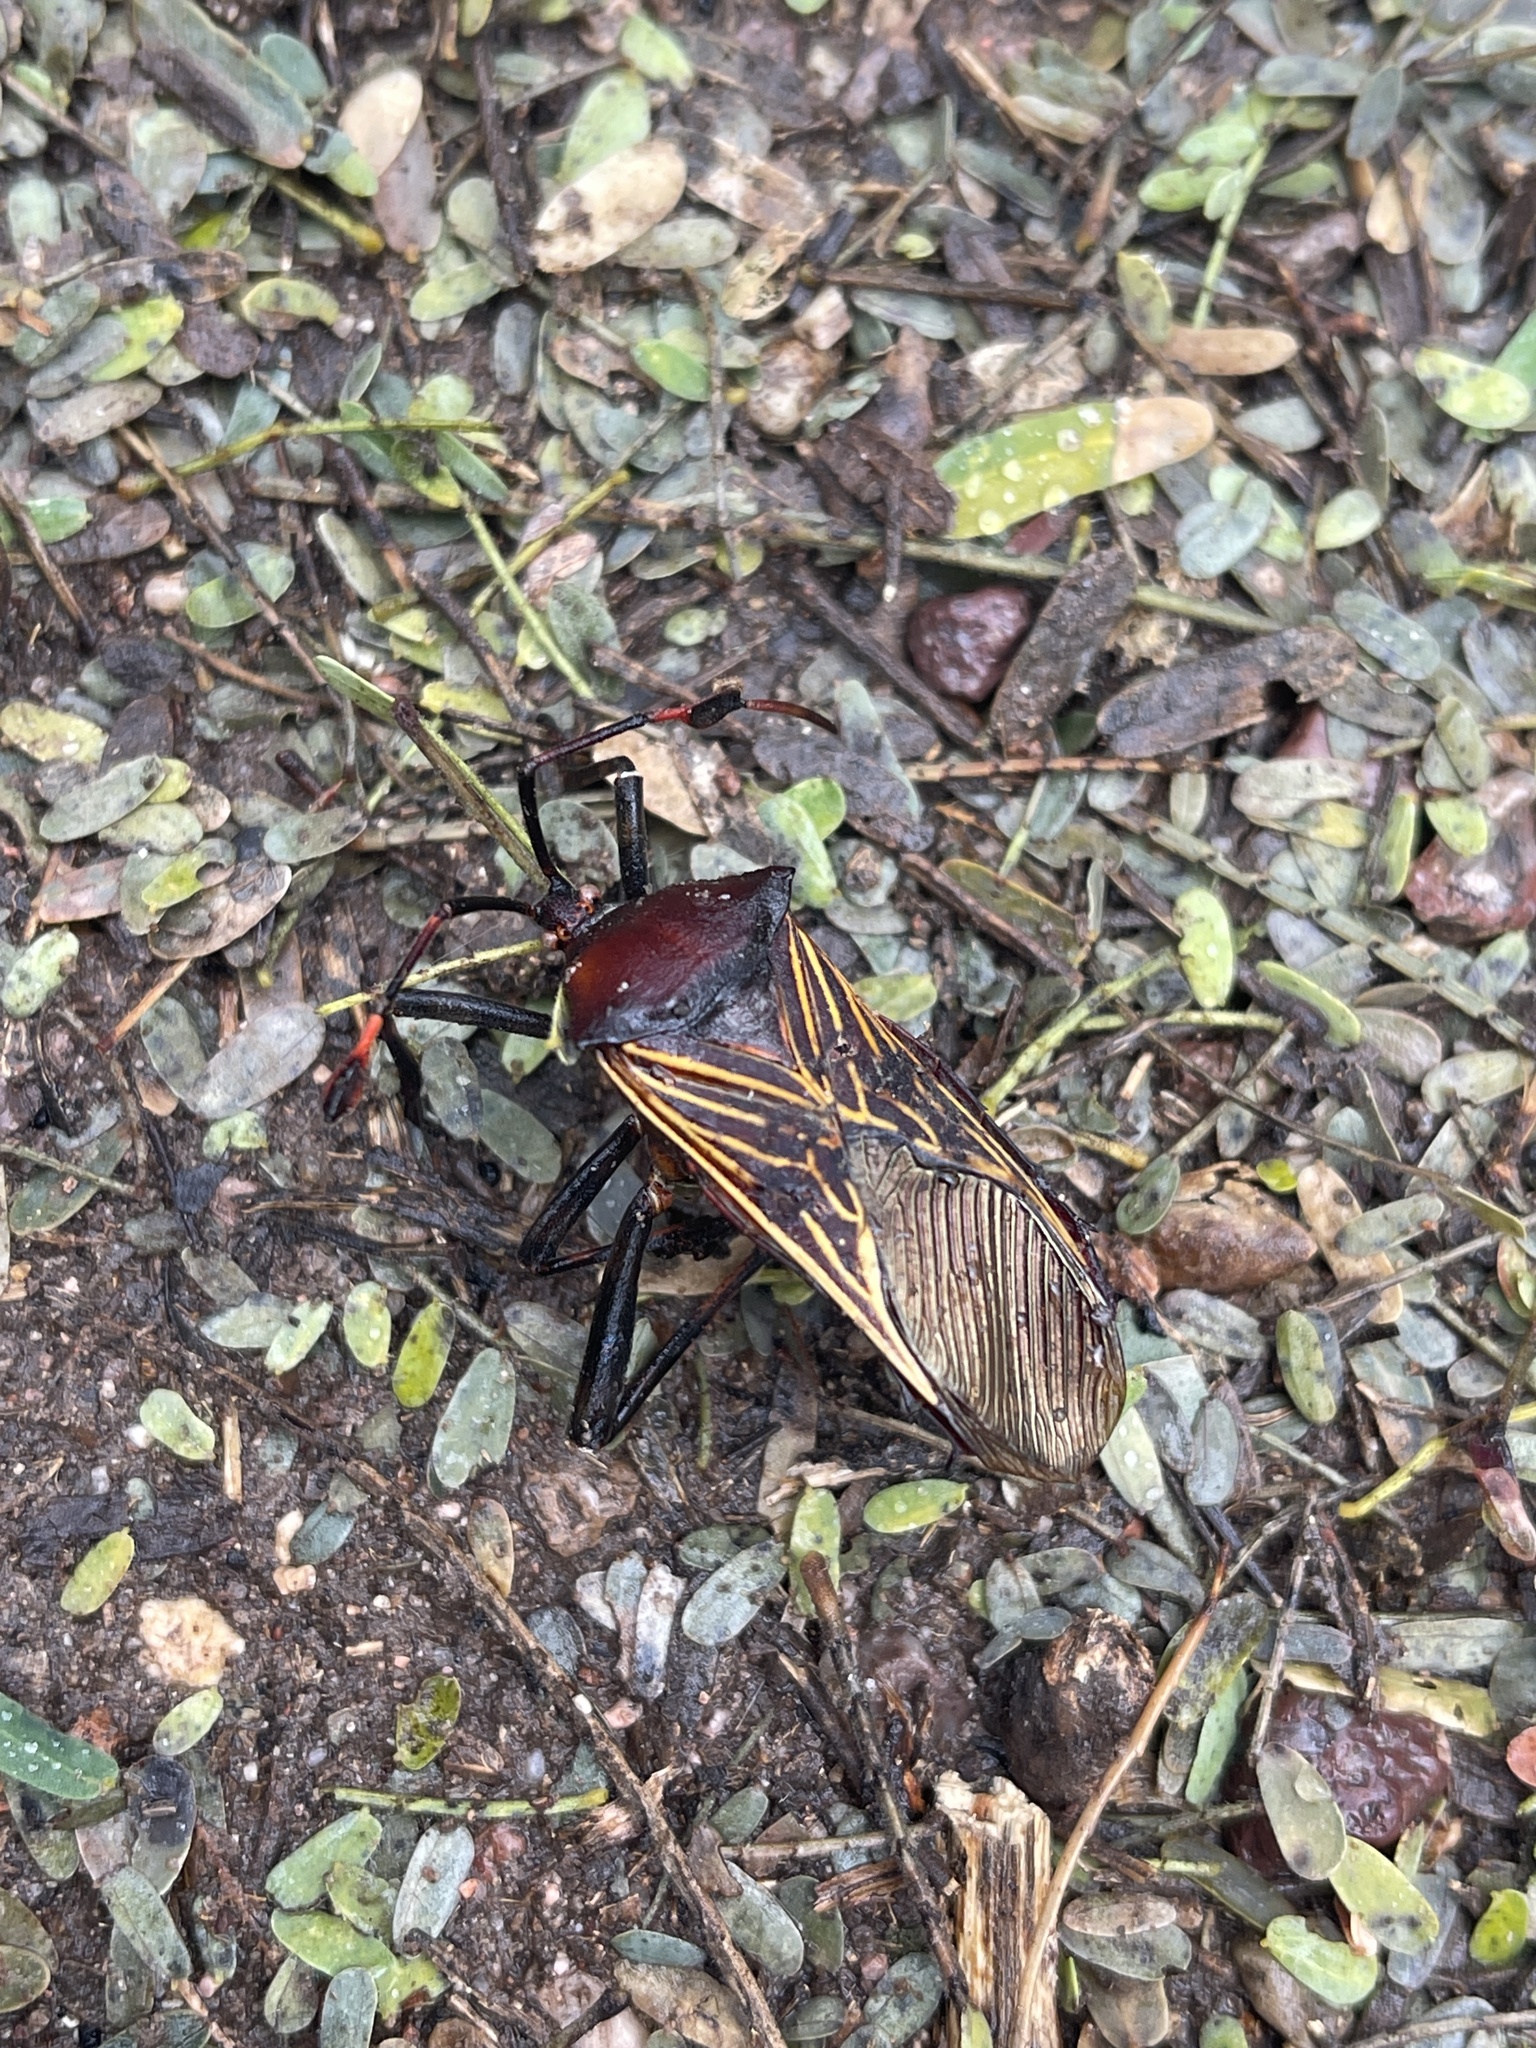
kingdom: Animalia
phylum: Arthropoda
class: Insecta
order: Hemiptera
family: Coreidae
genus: Thasus
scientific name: Thasus neocalifornicus
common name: Giant mesquite bug
